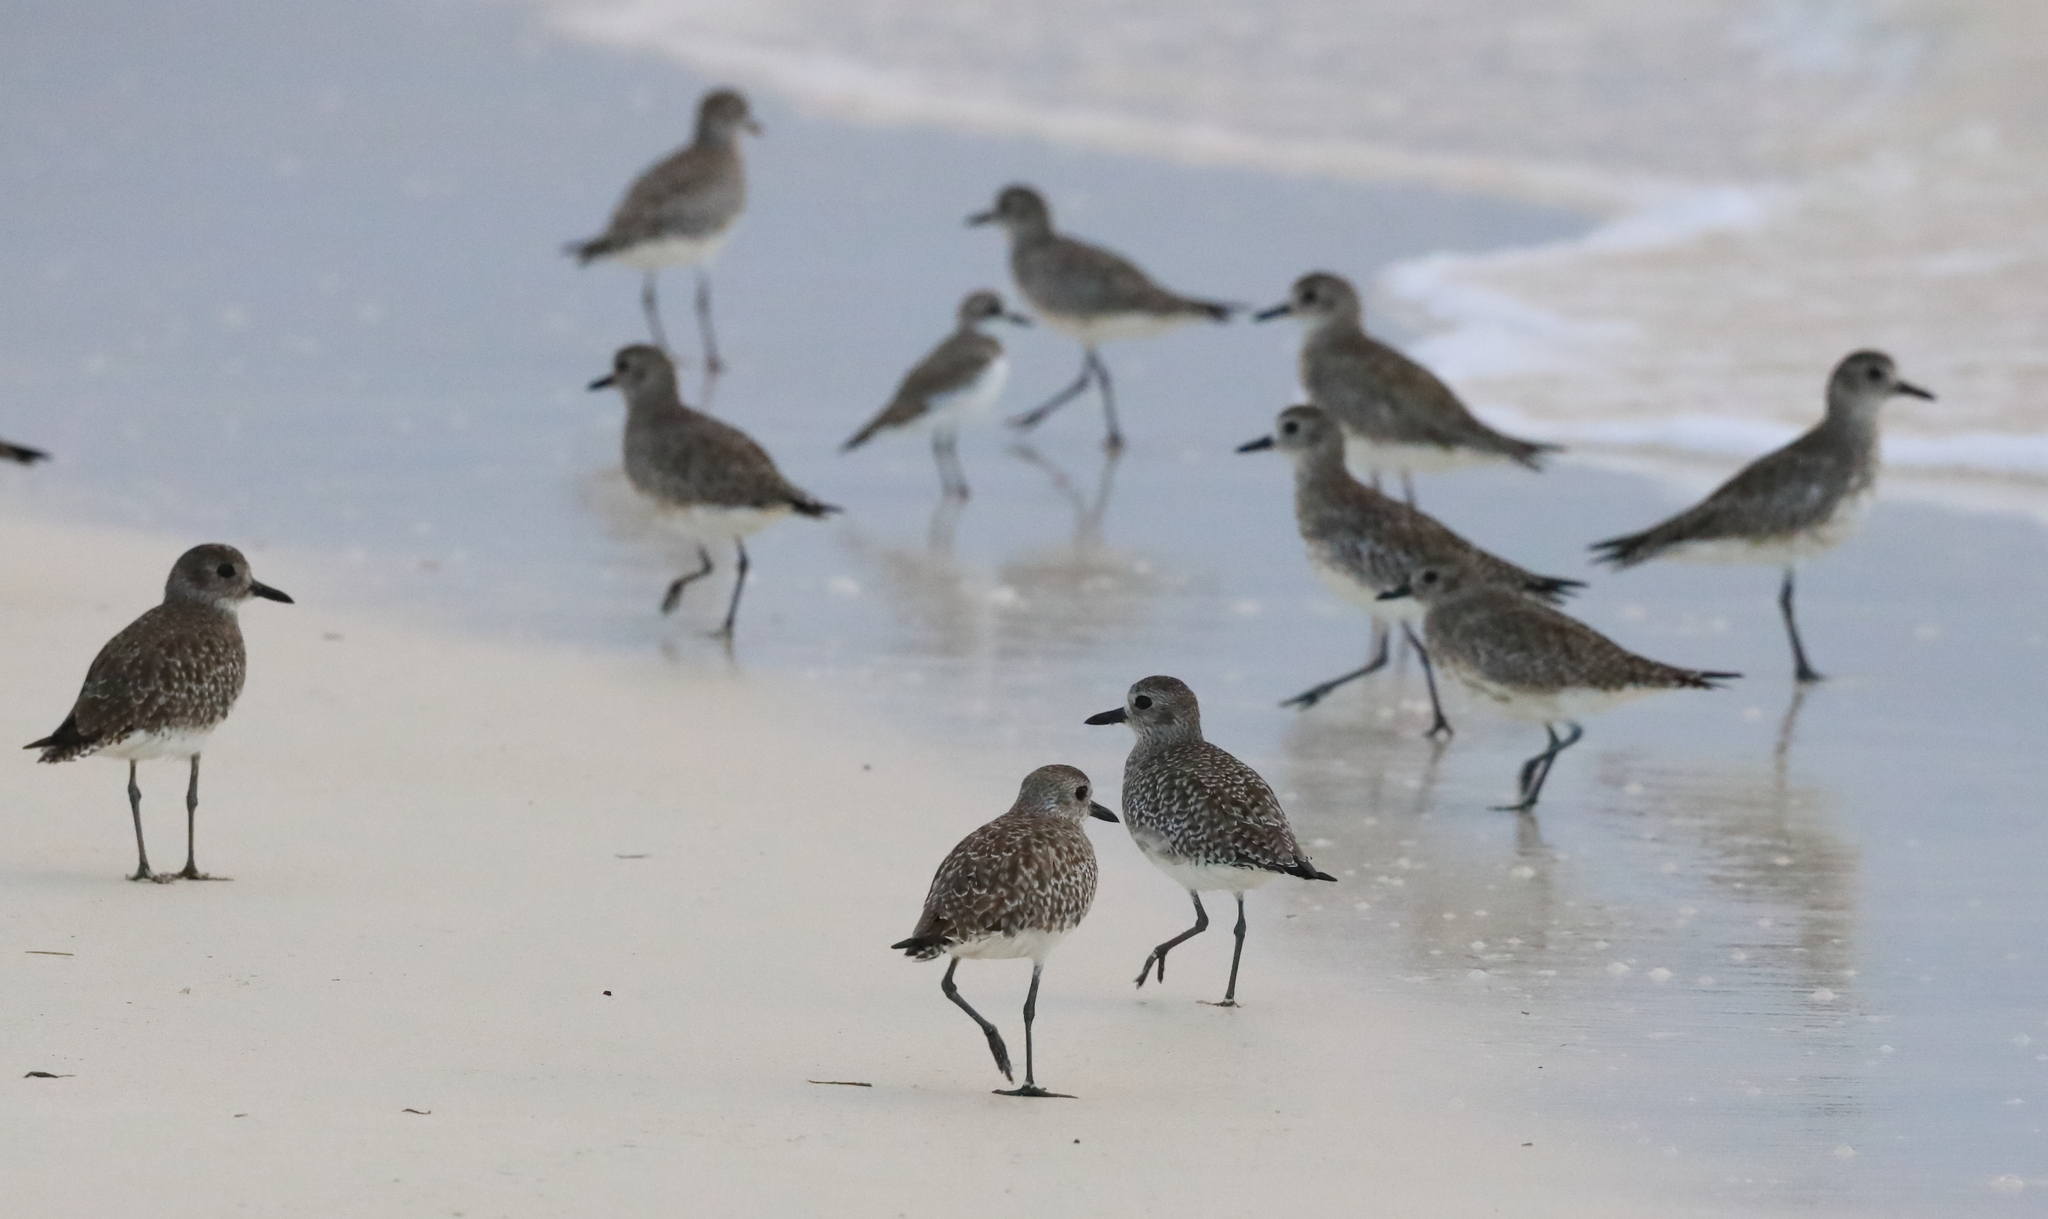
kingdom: Animalia
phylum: Chordata
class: Aves
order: Charadriiformes
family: Charadriidae
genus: Pluvialis
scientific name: Pluvialis squatarola
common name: Grey plover
